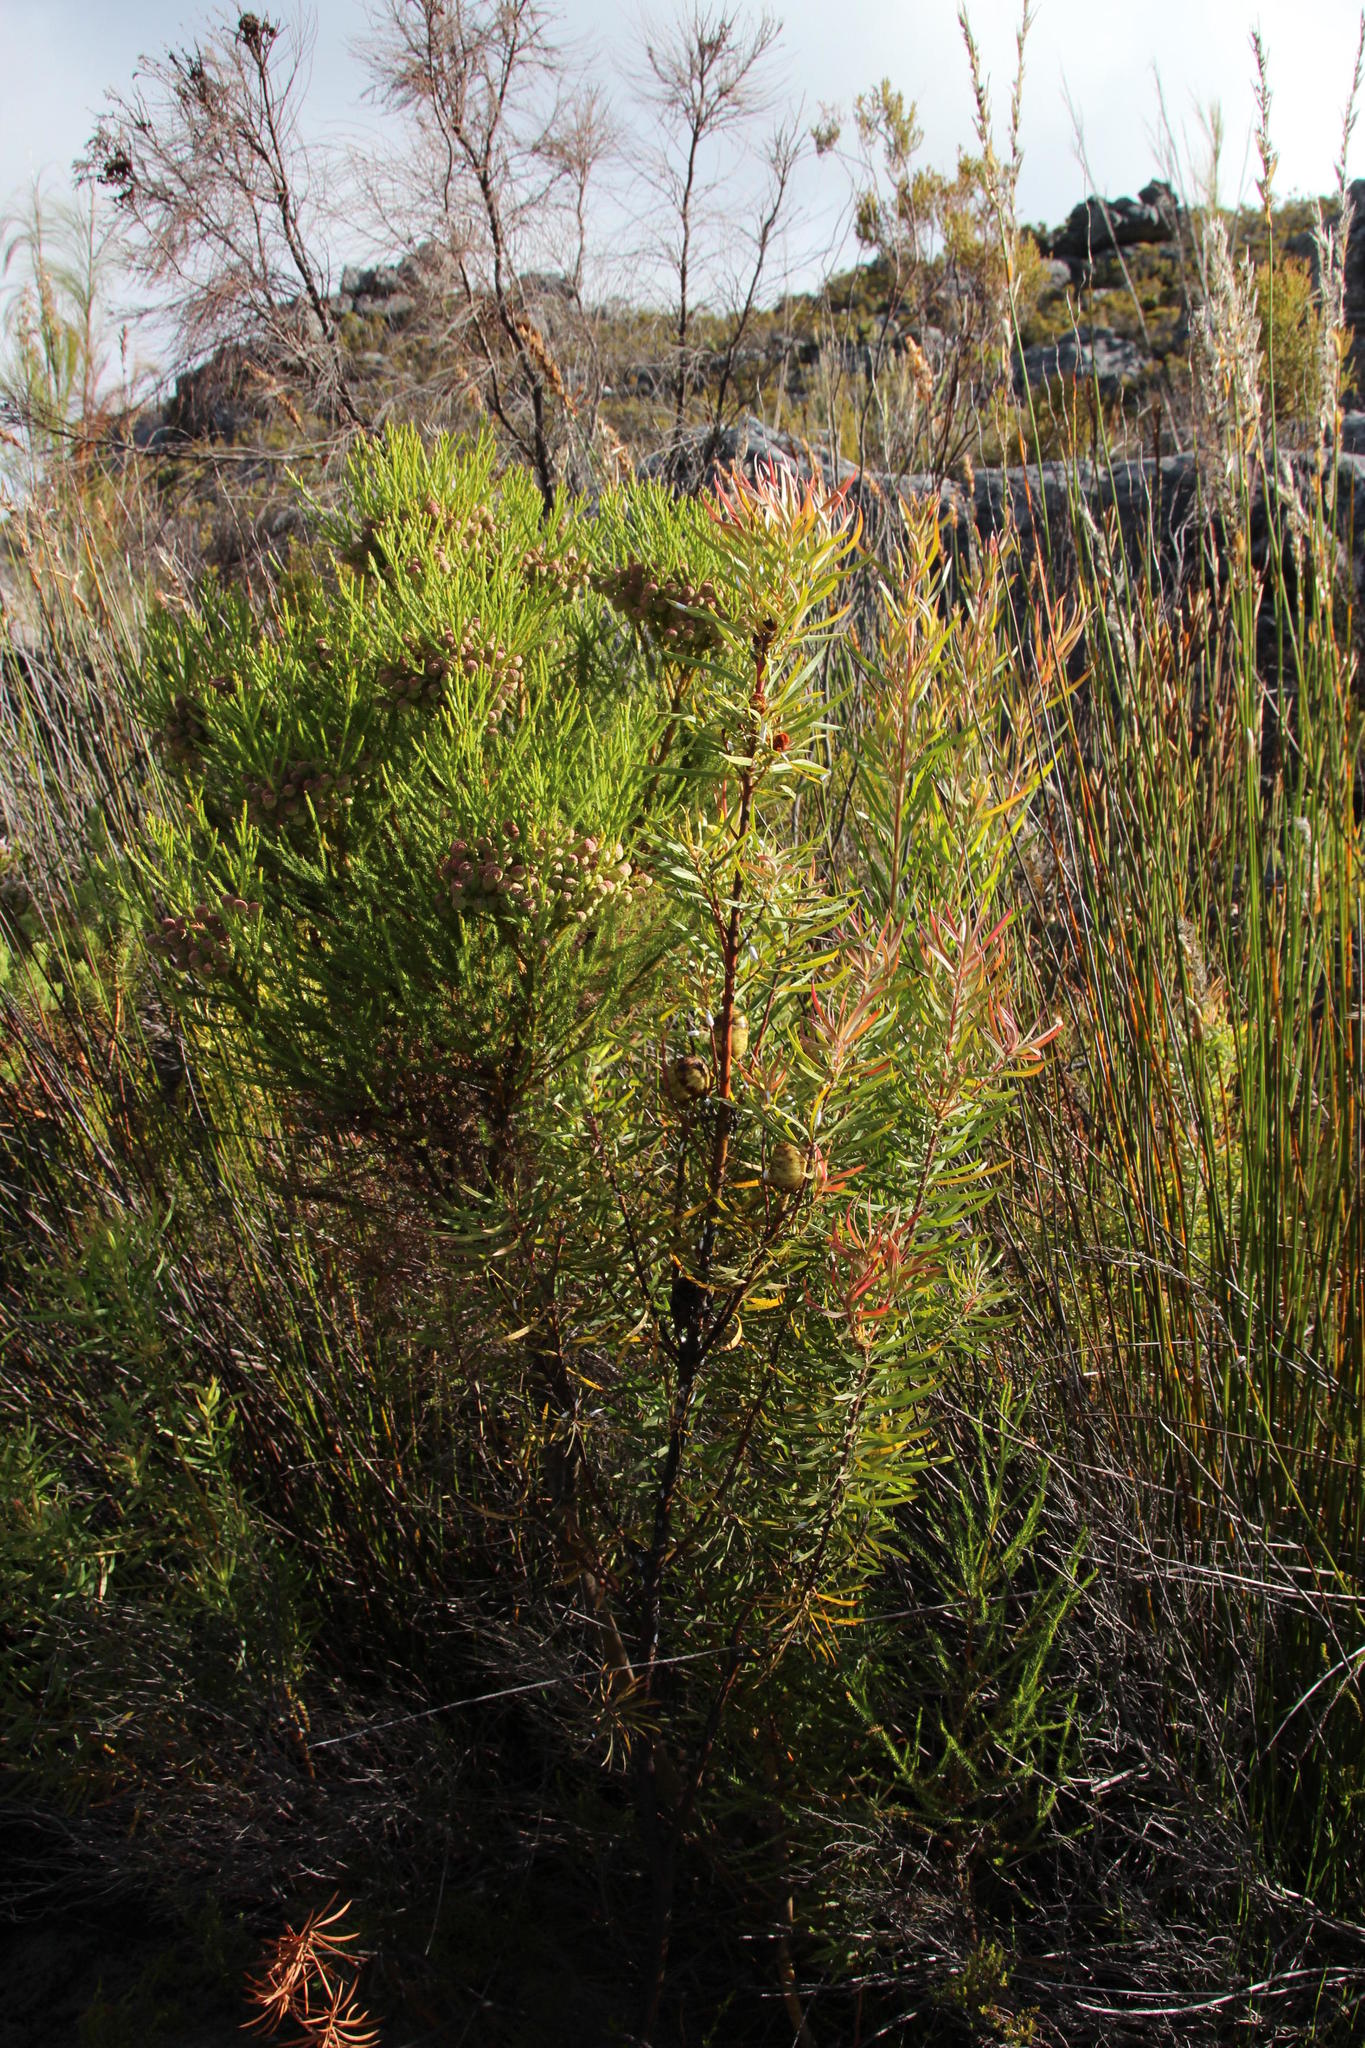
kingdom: Plantae
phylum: Tracheophyta
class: Magnoliopsida
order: Proteales
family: Proteaceae
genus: Leucadendron
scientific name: Leucadendron salicifolium
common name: Common stream conebush
